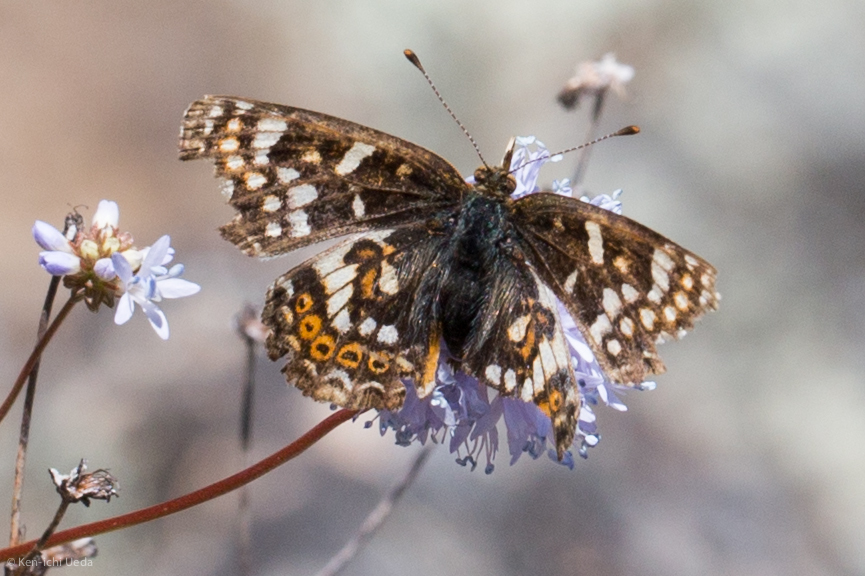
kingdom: Animalia
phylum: Arthropoda
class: Insecta
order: Lepidoptera
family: Nymphalidae
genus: Phyciodes
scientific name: Phyciodes tharos
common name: Pearl crescent
